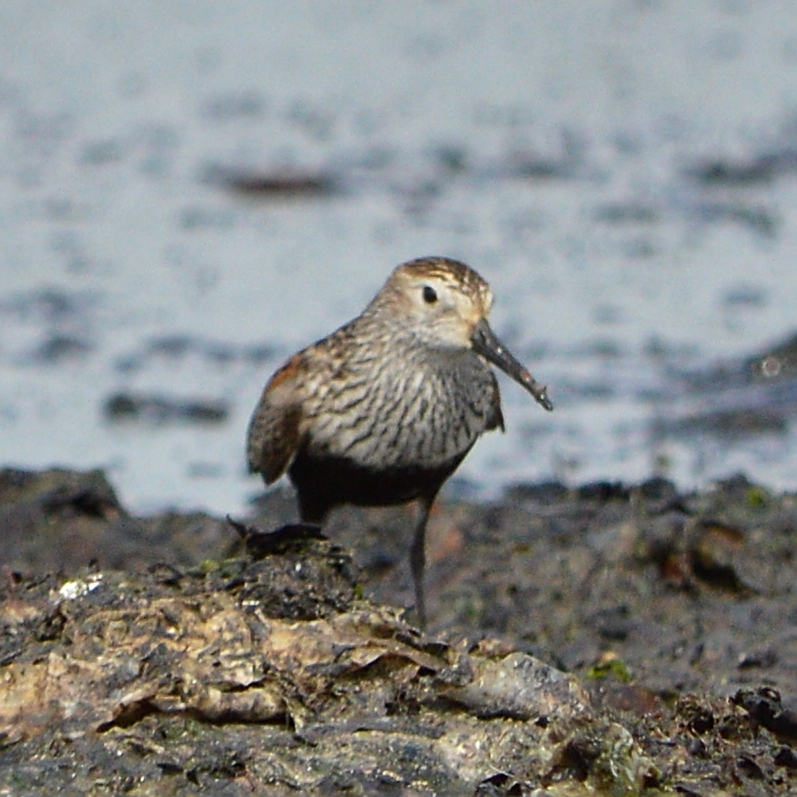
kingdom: Animalia
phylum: Chordata
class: Aves
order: Charadriiformes
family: Scolopacidae
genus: Calidris
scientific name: Calidris alpina
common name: Dunlin
